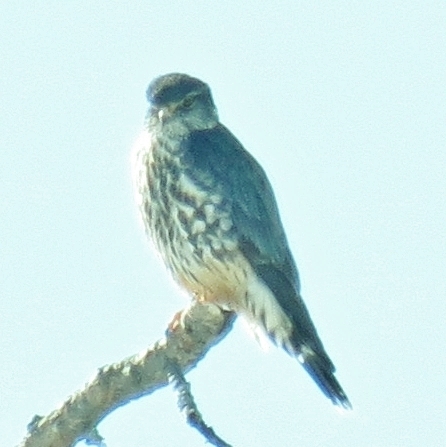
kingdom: Animalia
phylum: Chordata
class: Aves
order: Falconiformes
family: Falconidae
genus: Falco
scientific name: Falco columbarius
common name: Merlin
